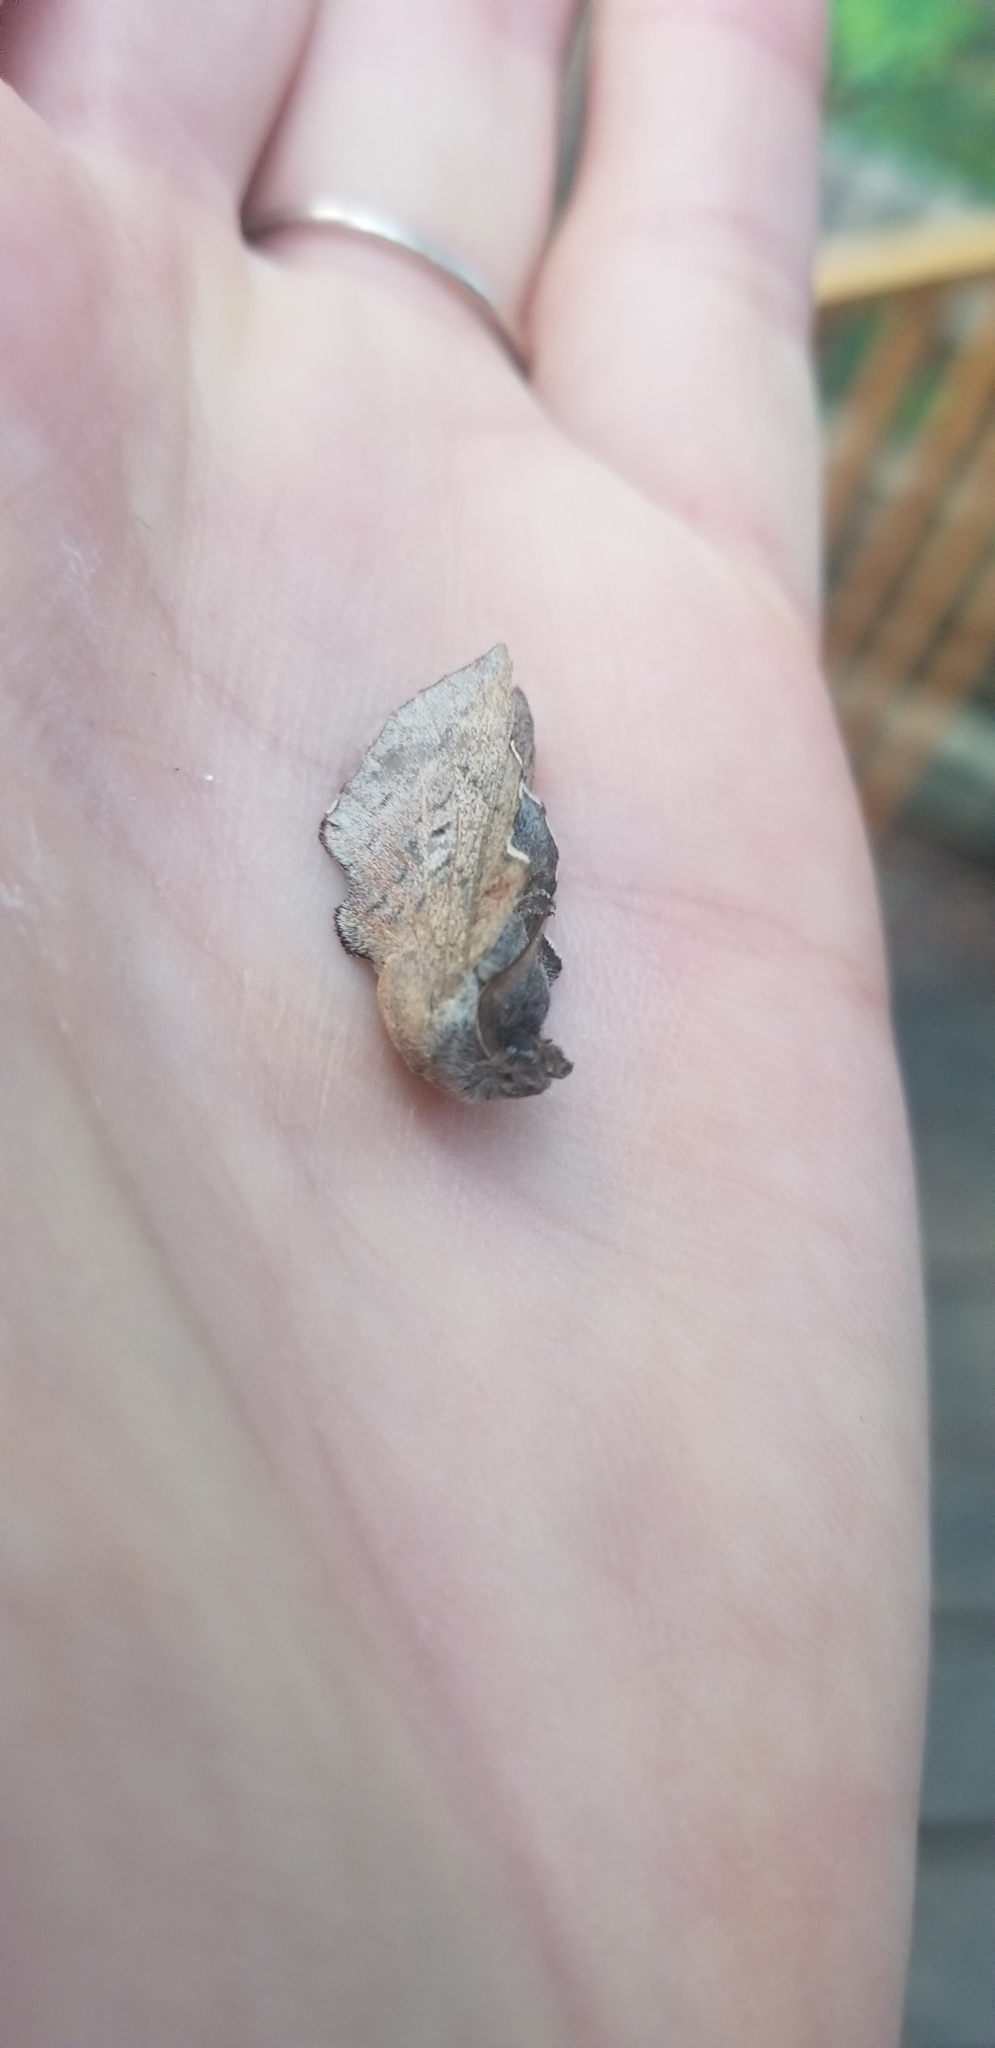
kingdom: Animalia
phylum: Arthropoda
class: Insecta
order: Lepidoptera
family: Lasiocampidae
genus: Phyllodesma
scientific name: Phyllodesma americana
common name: American lappet moth
